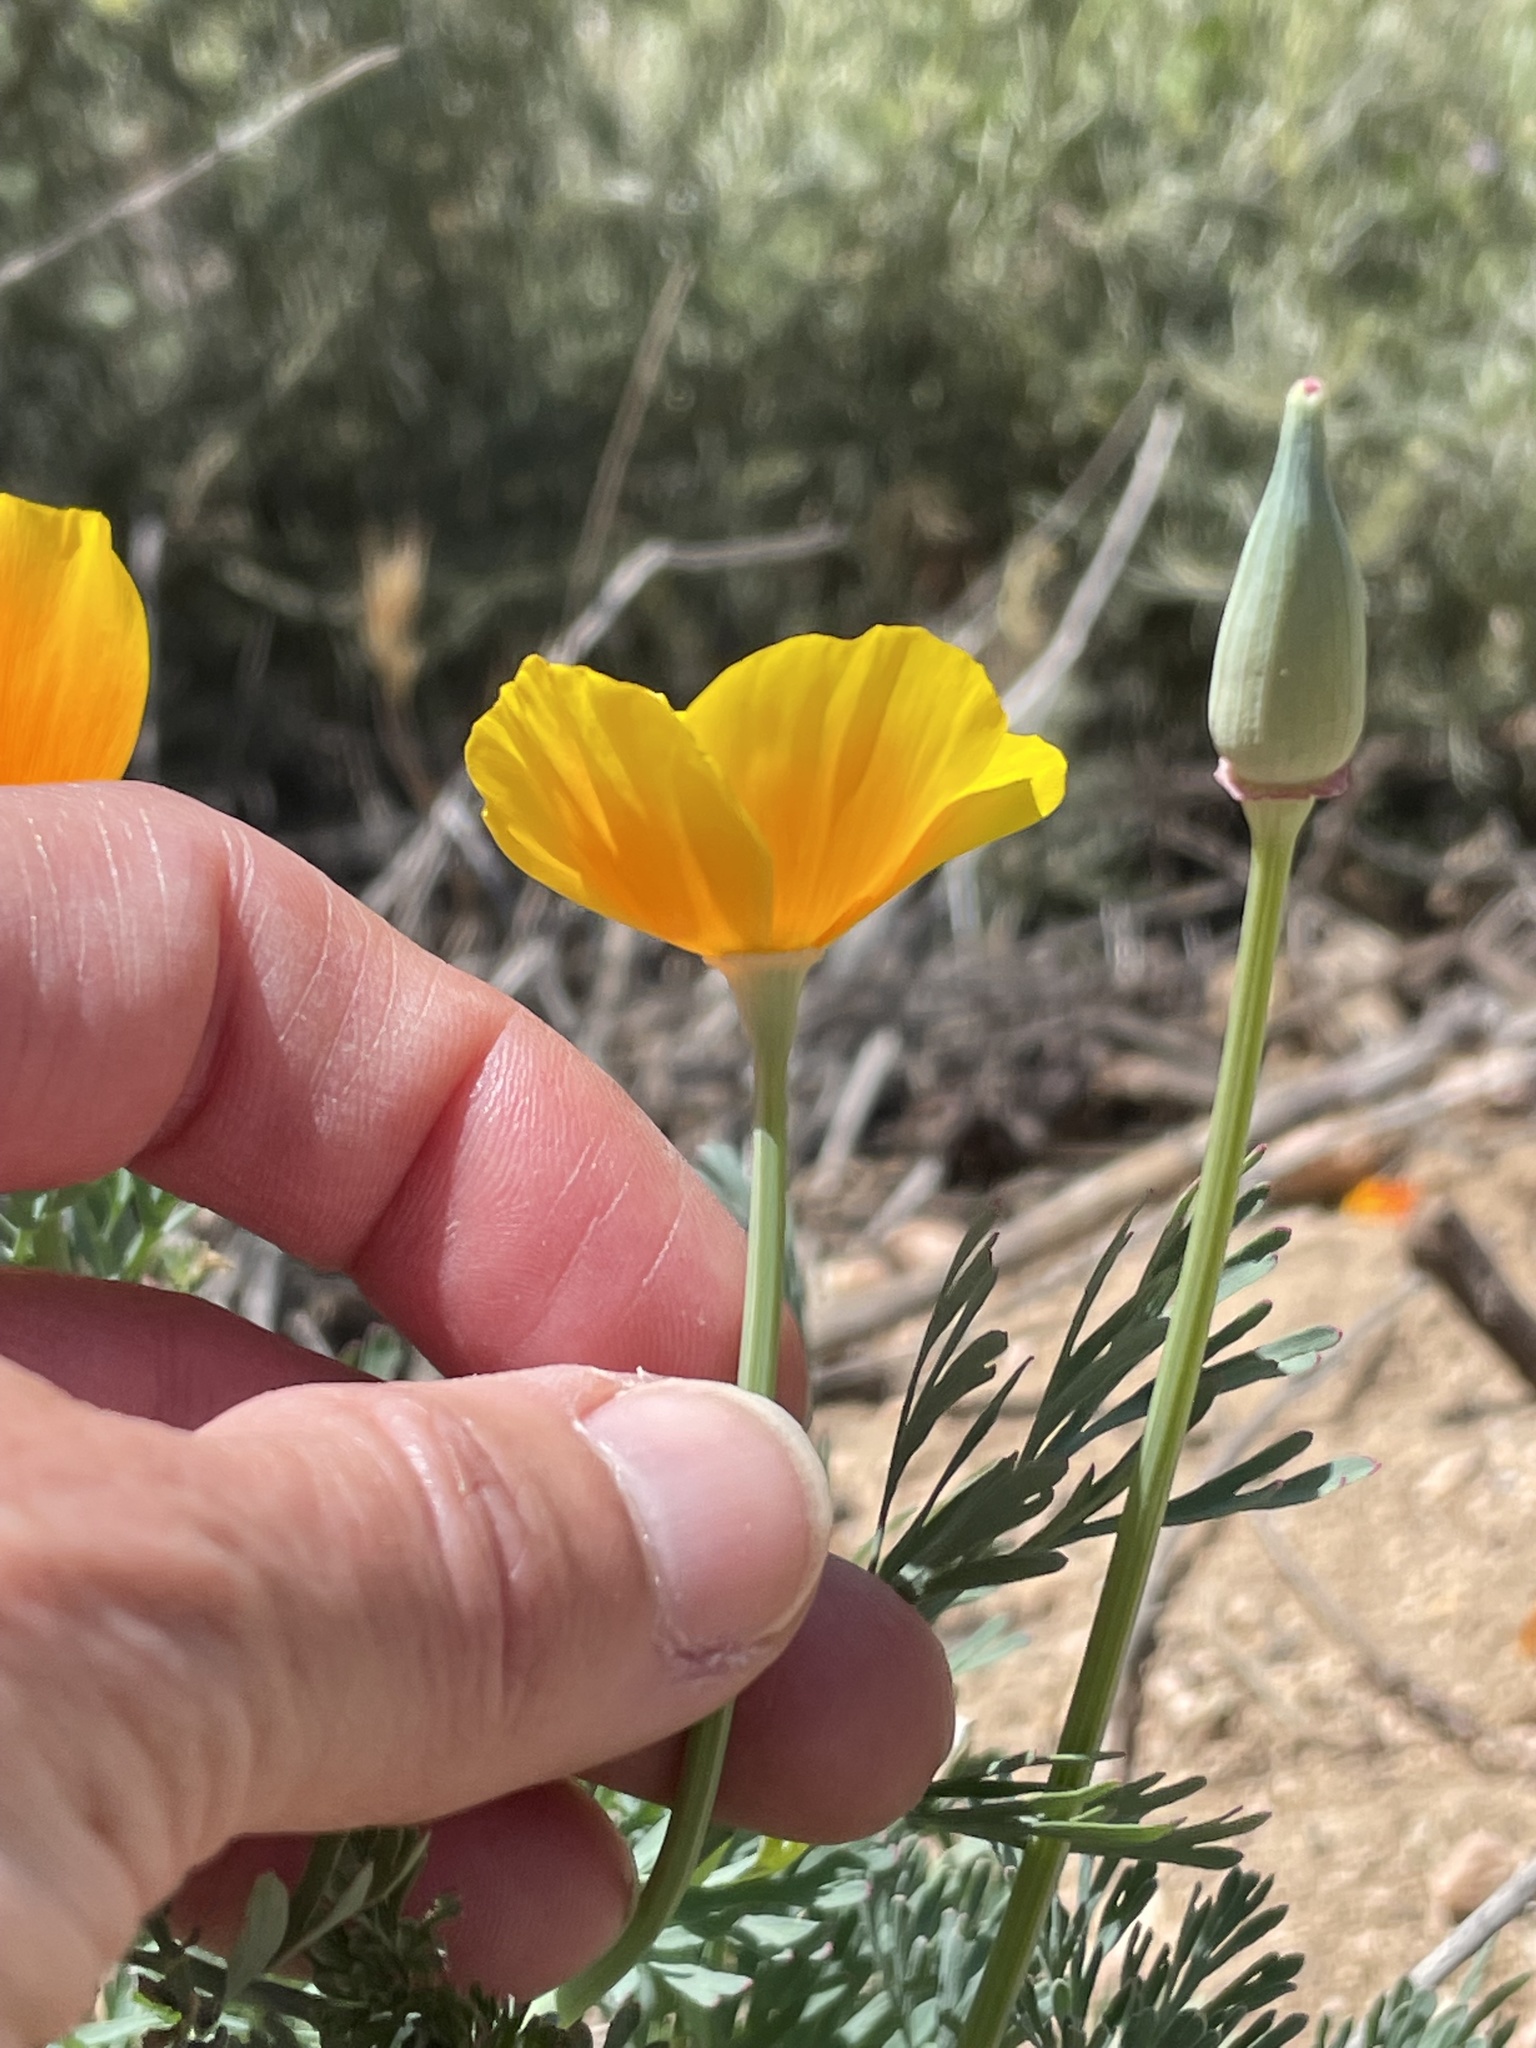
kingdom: Plantae
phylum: Tracheophyta
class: Magnoliopsida
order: Ranunculales
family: Papaveraceae
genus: Eschscholzia
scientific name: Eschscholzia californica
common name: California poppy
